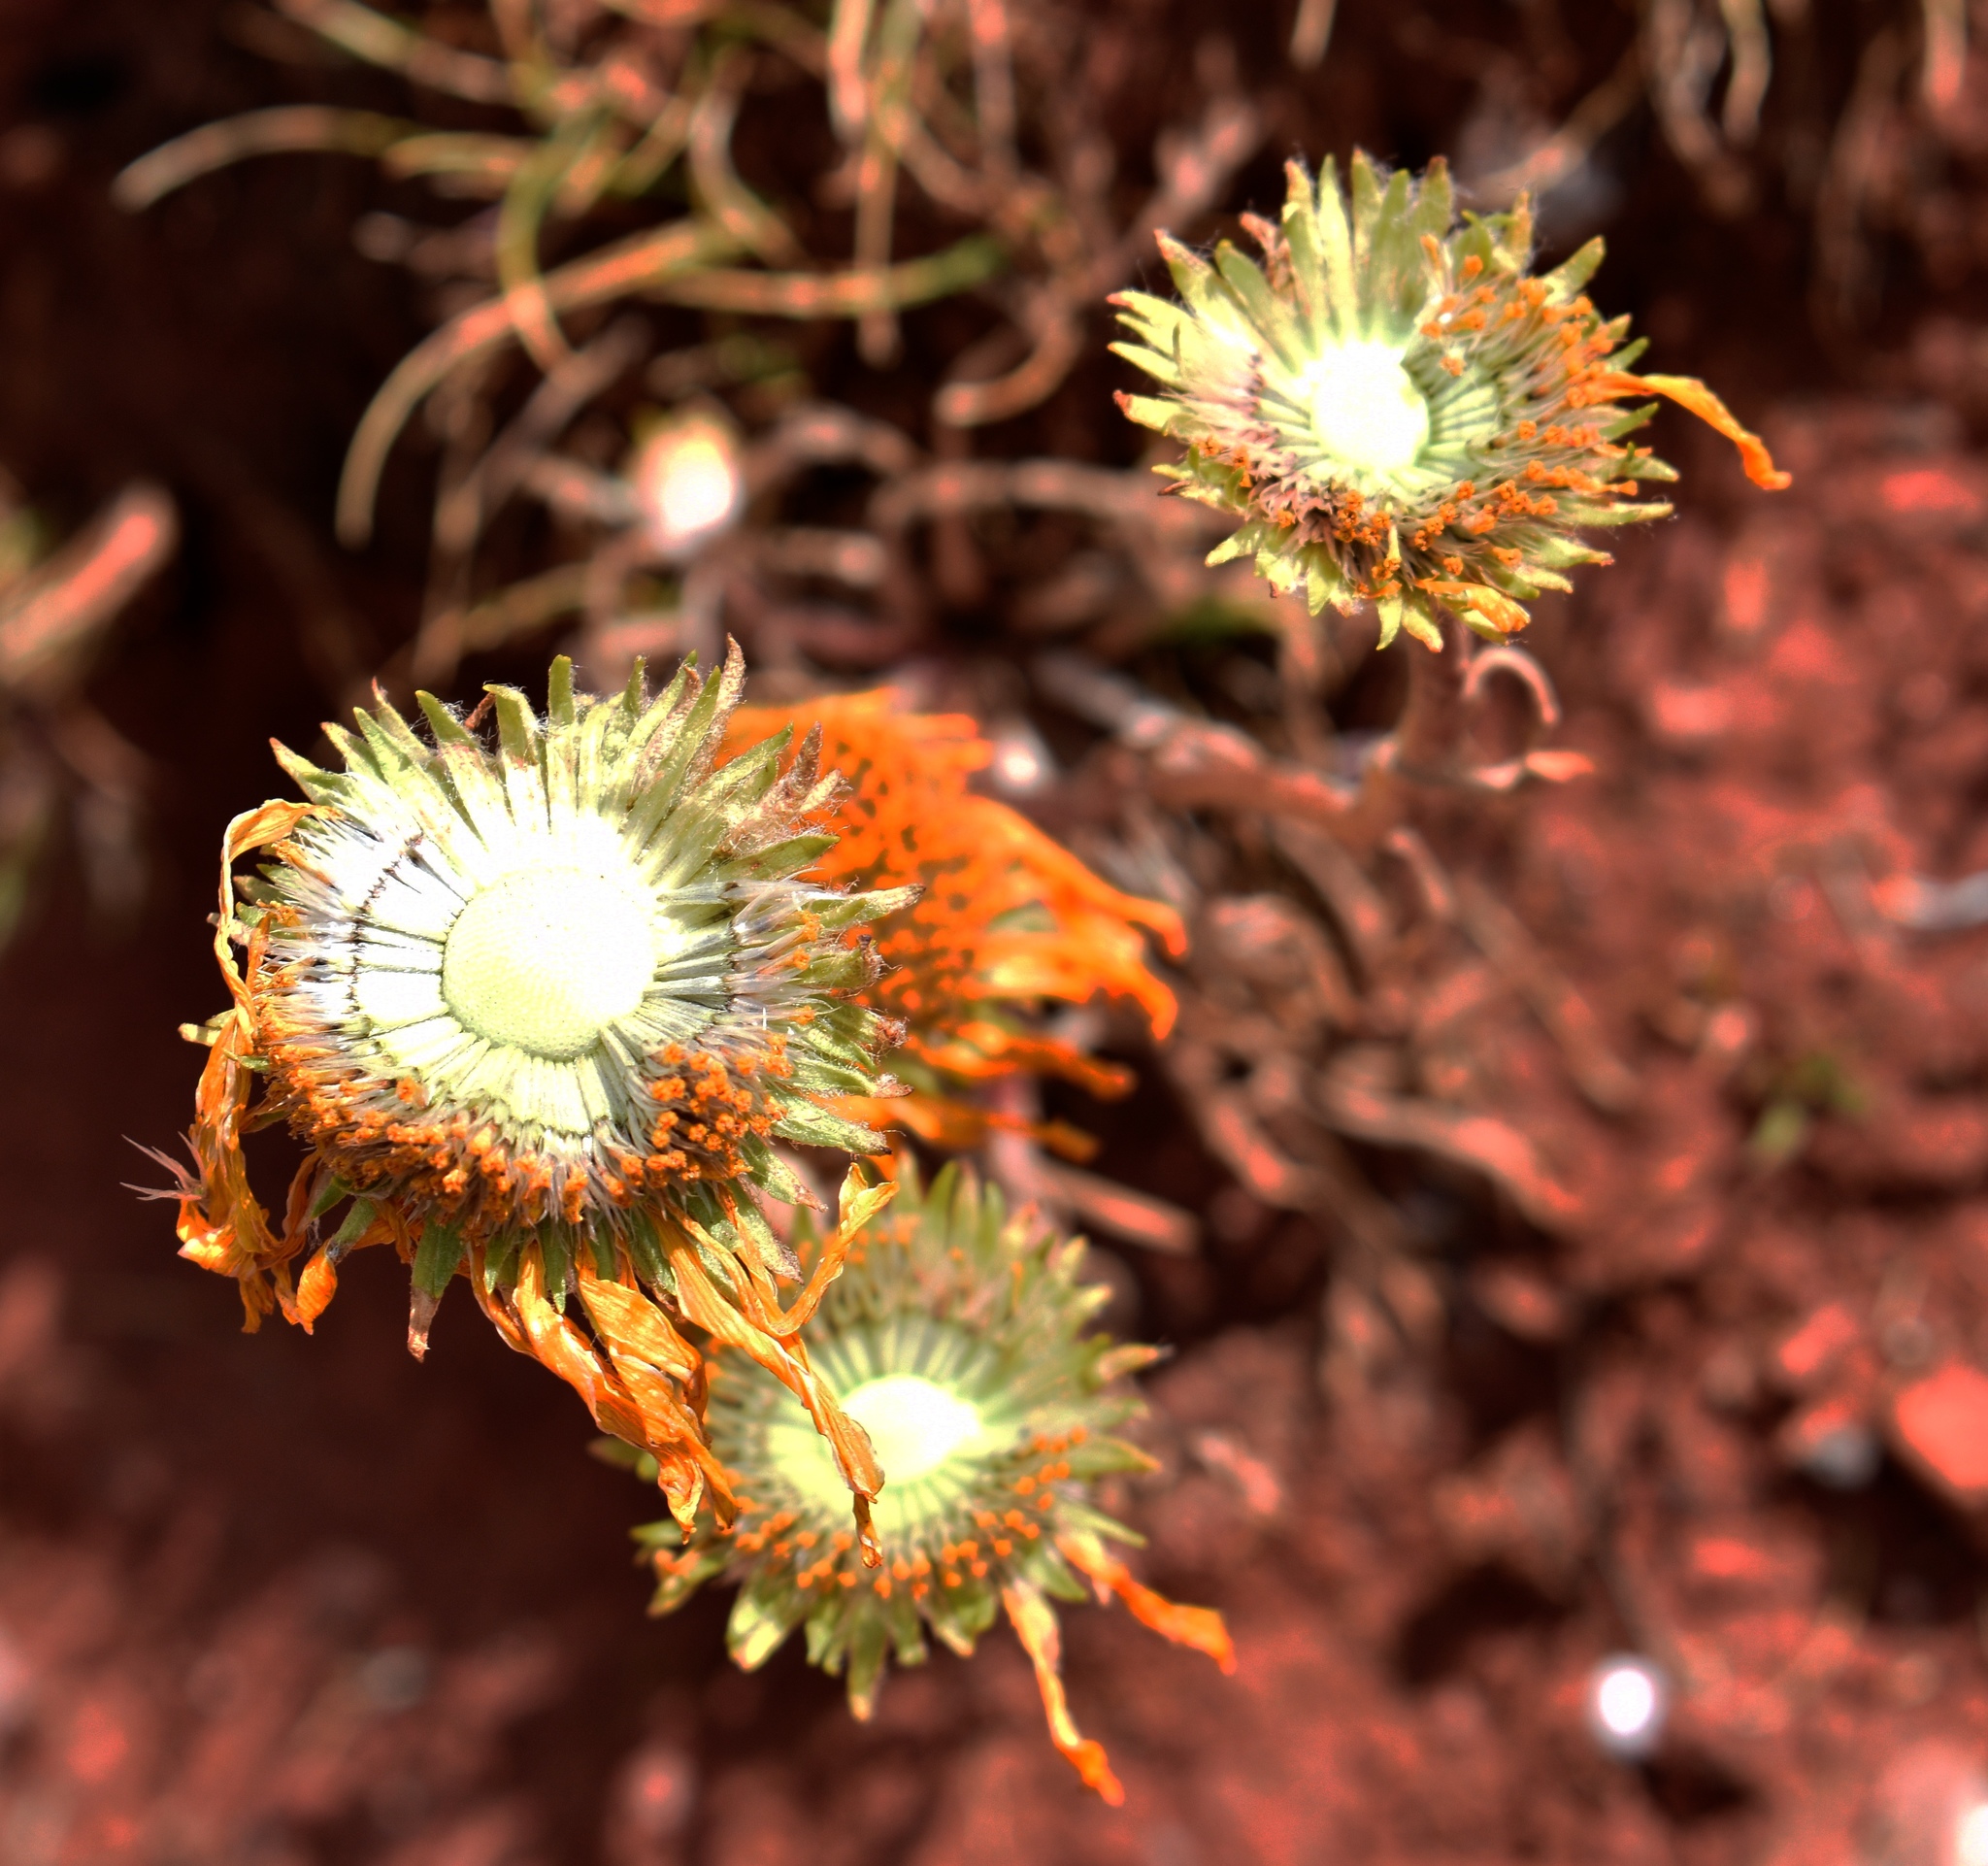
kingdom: Plantae
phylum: Tracheophyta
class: Magnoliopsida
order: Asterales
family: Asteraceae
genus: Hymenoxys
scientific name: Hymenoxys hoopesii
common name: Orange-sneezeweed
